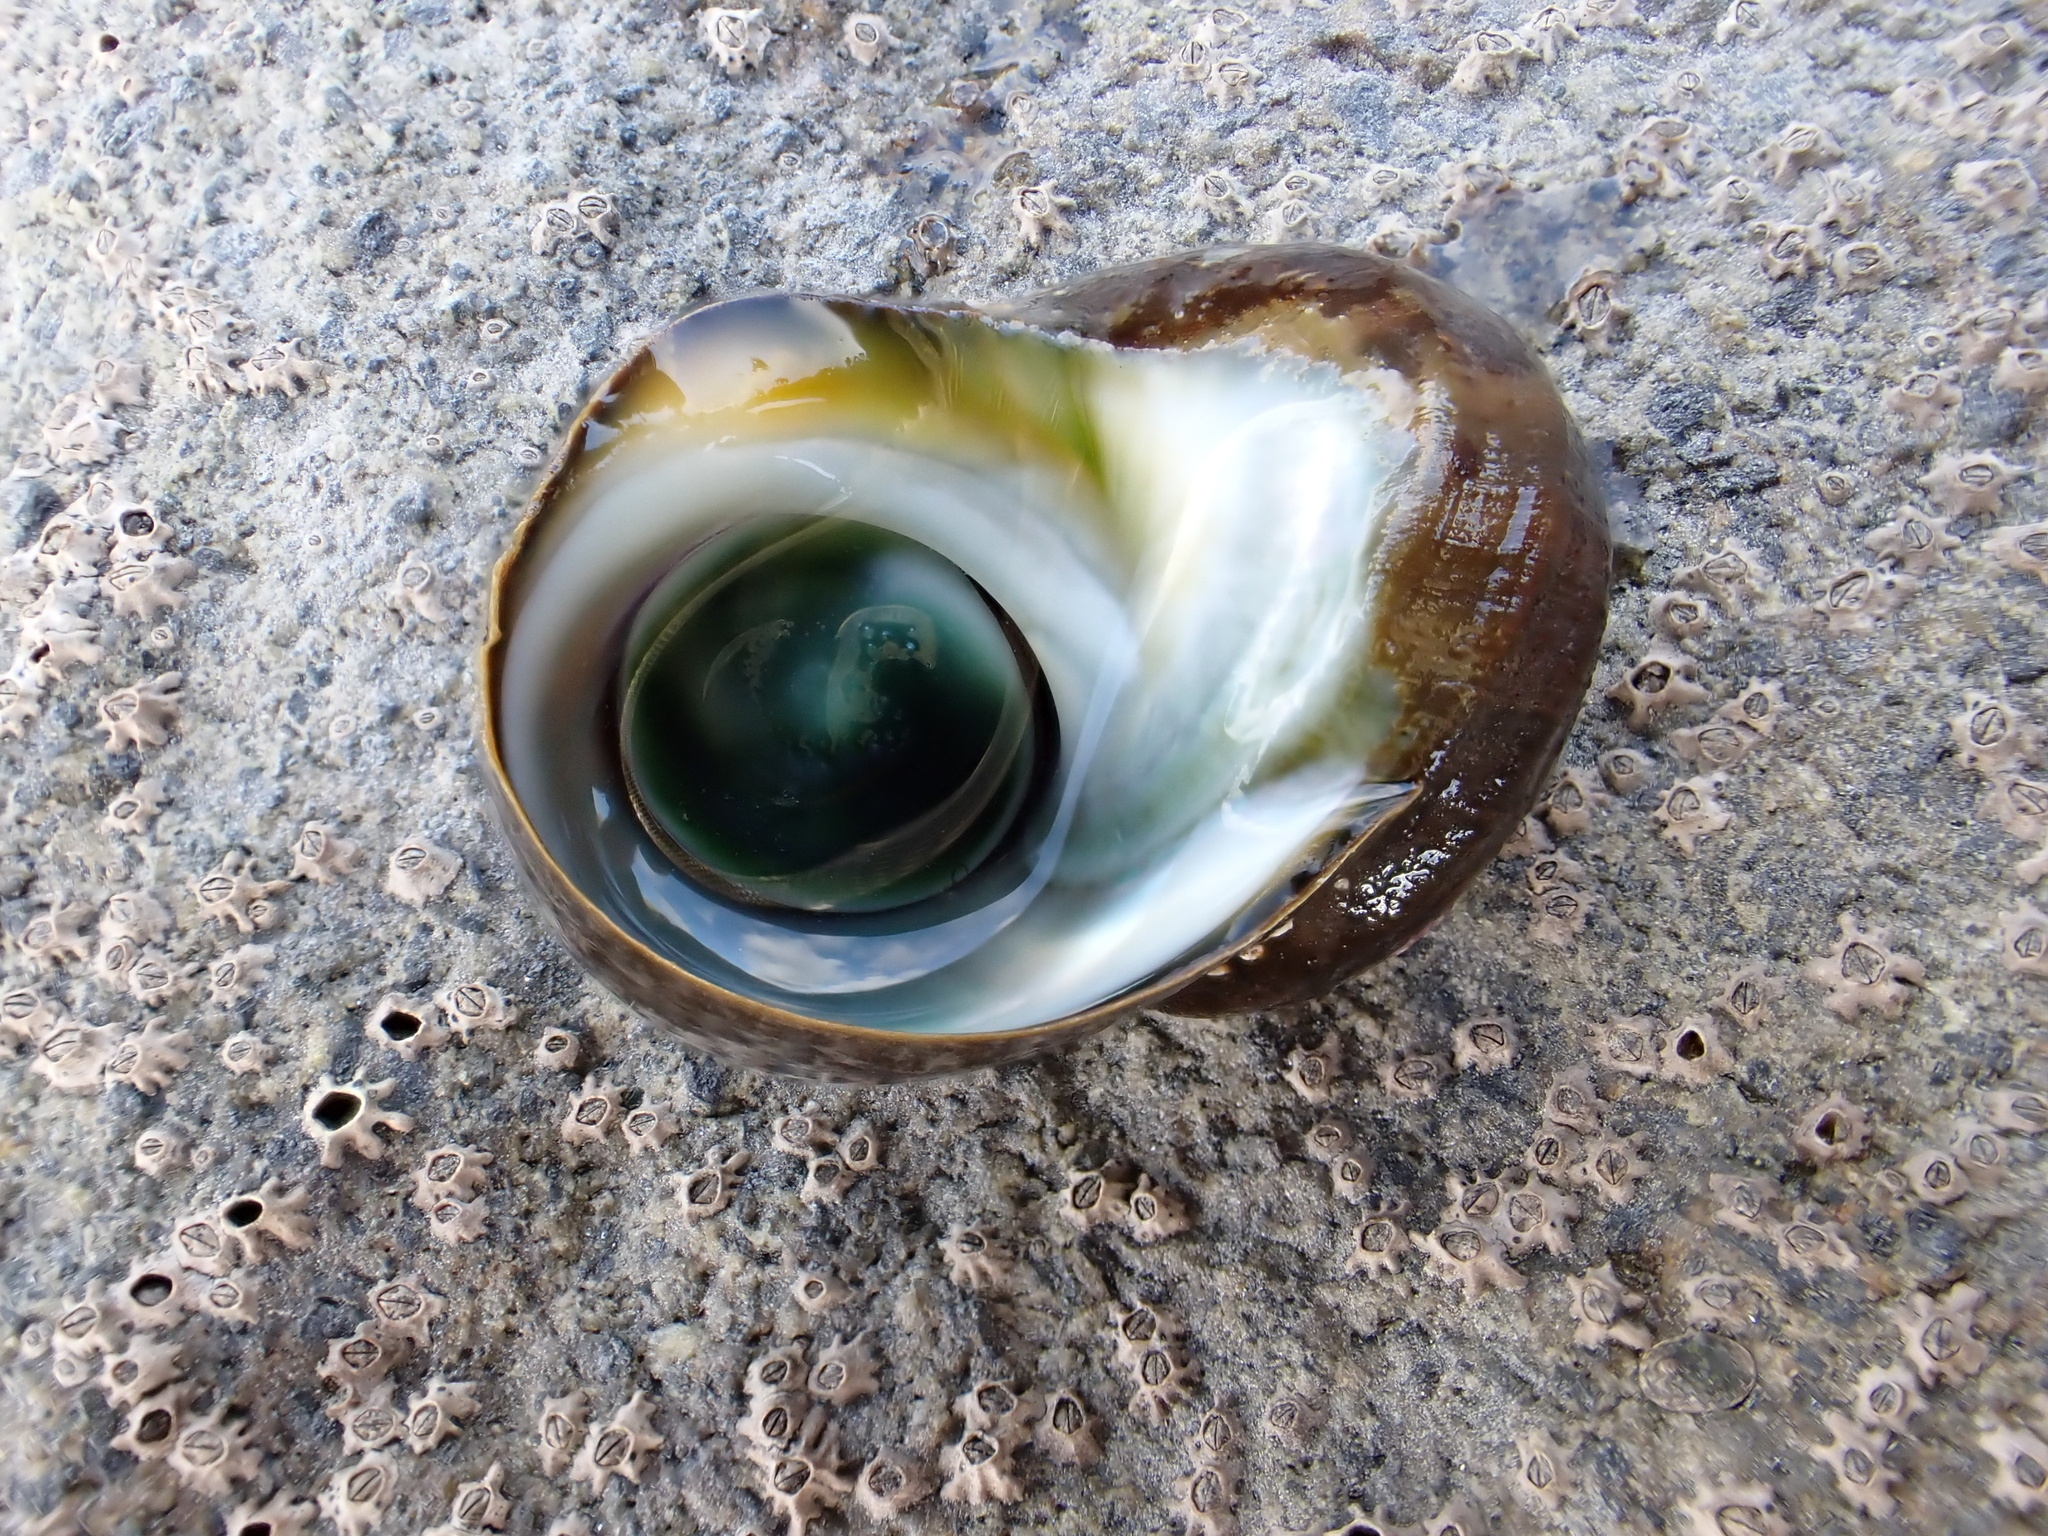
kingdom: Animalia
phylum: Mollusca
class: Gastropoda
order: Trochida
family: Turbinidae
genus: Lunella
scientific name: Lunella smaragda
